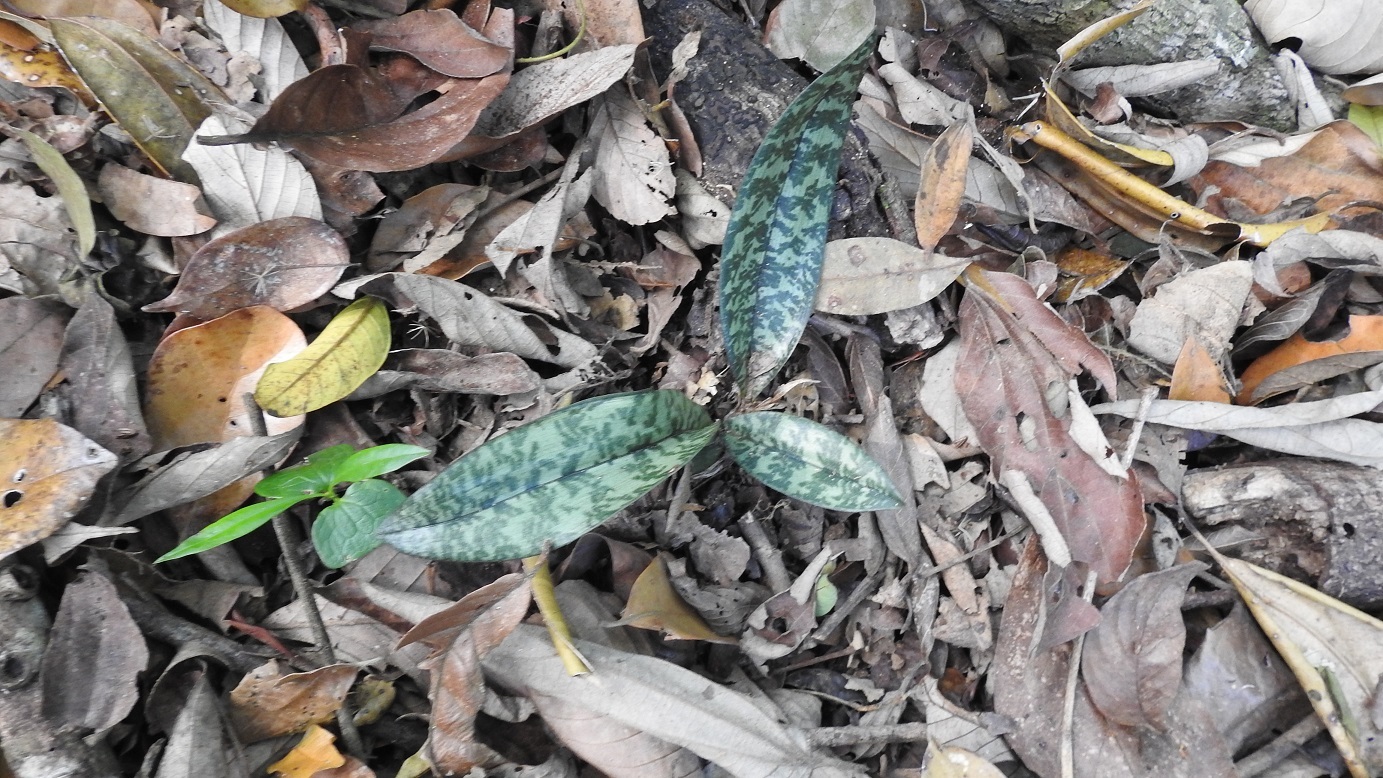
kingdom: Plantae
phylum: Tracheophyta
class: Liliopsida
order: Asparagales
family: Orchidaceae
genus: Eulophia
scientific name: Eulophia maculata
